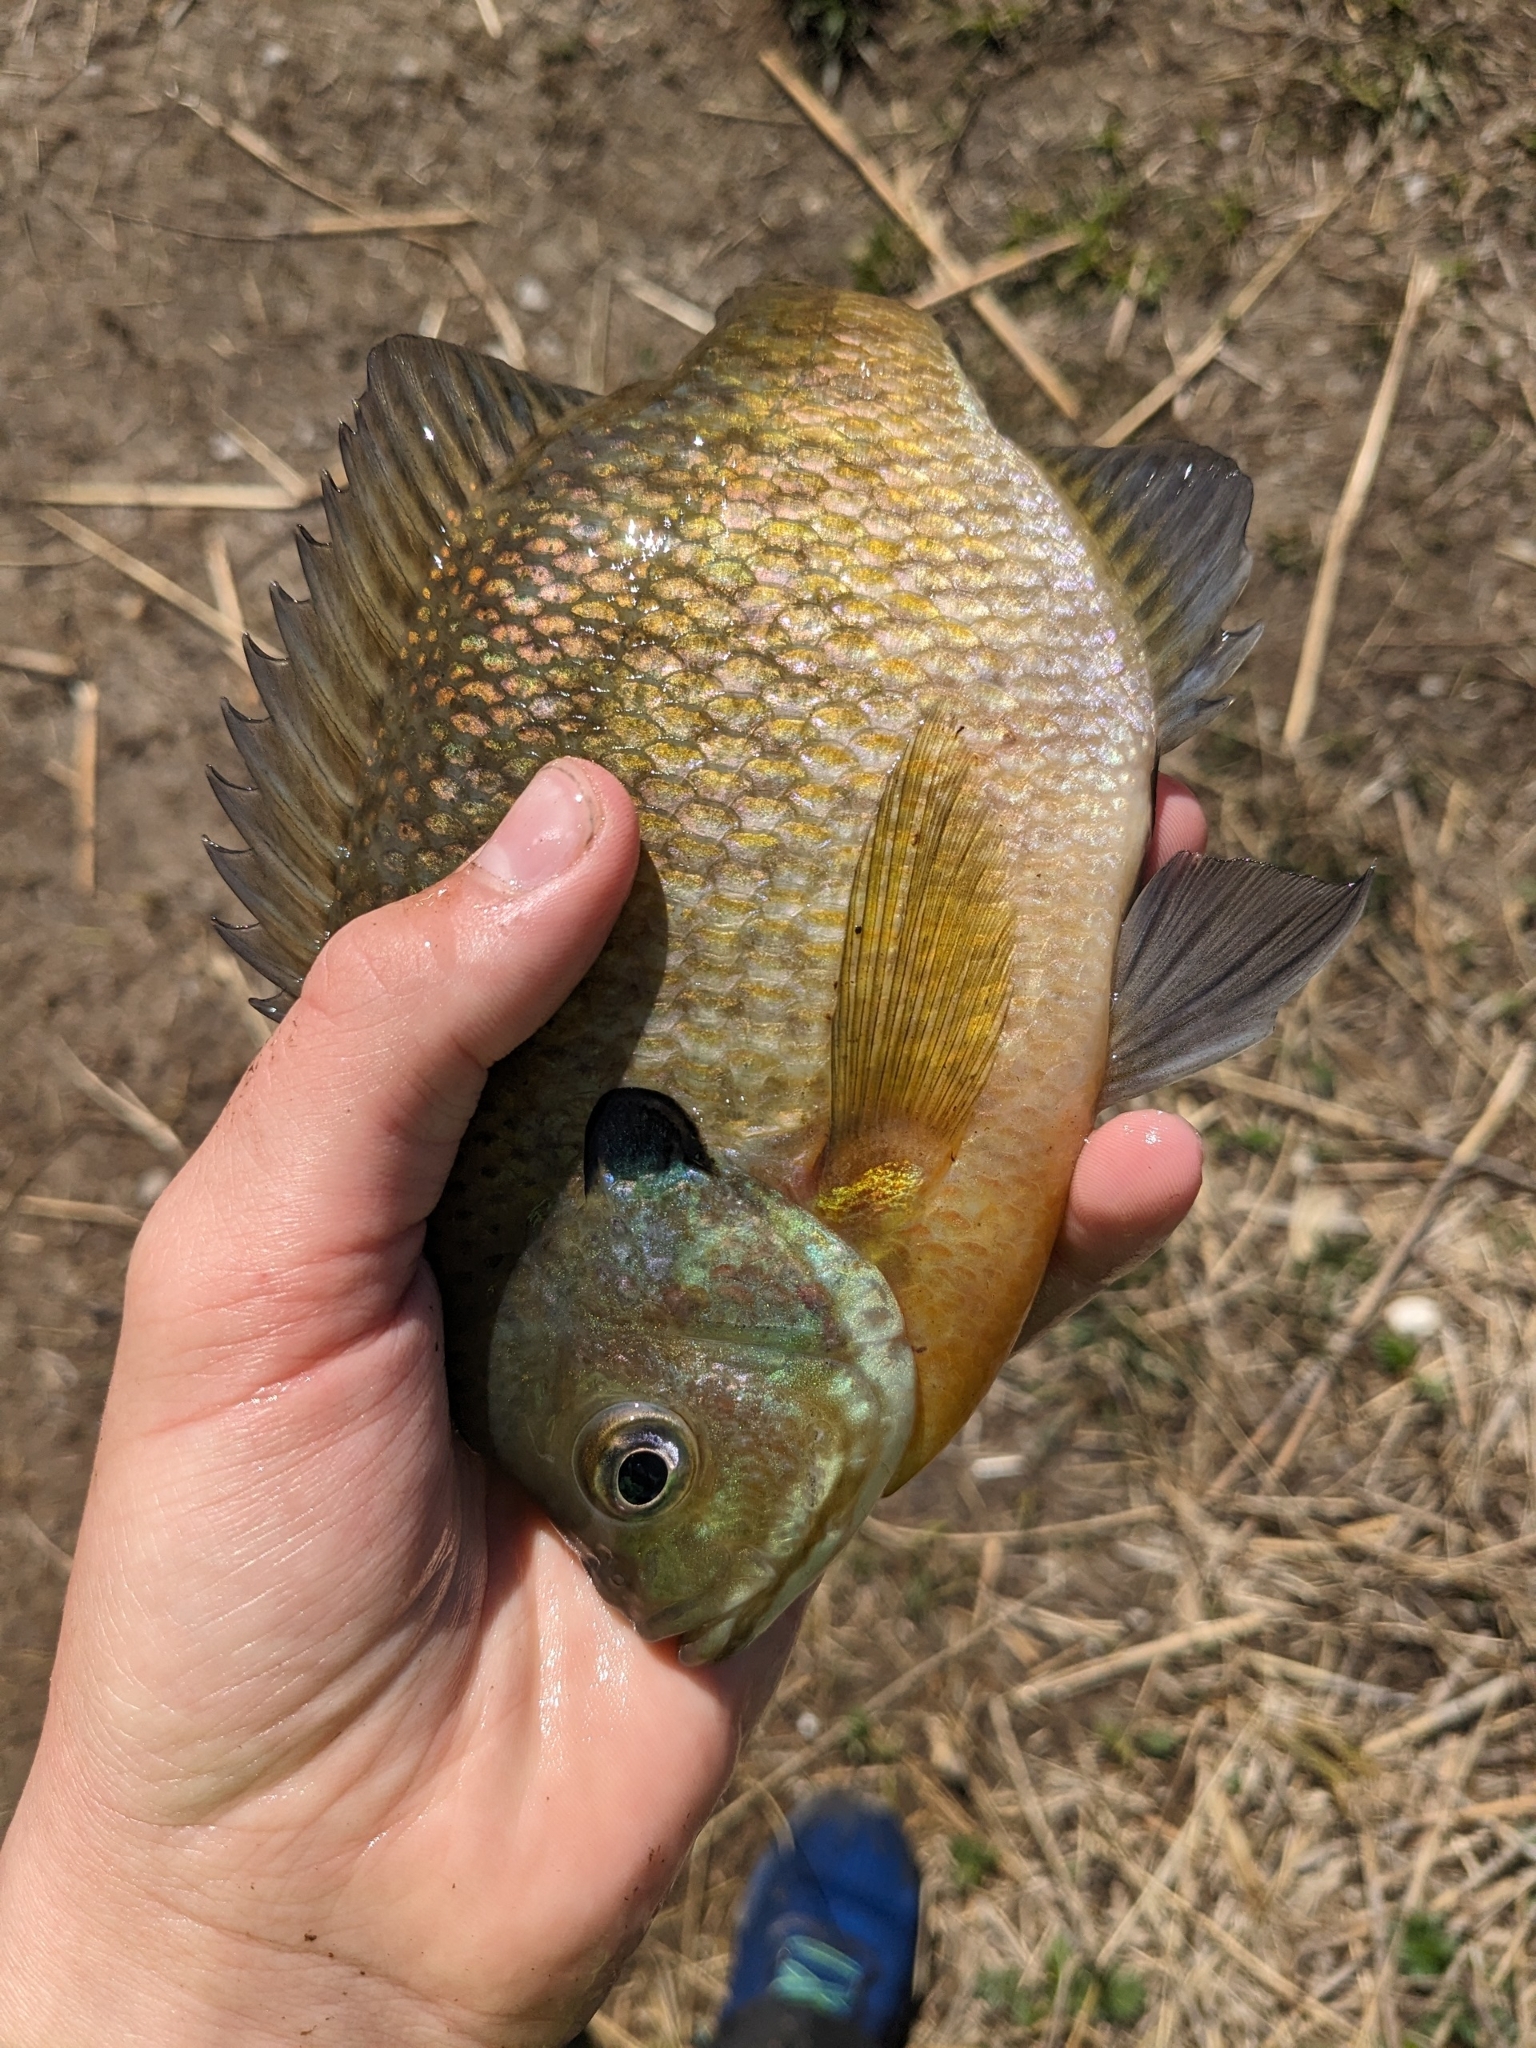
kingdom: Animalia
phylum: Chordata
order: Perciformes
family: Centrarchidae
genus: Lepomis
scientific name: Lepomis macrochirus
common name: Bluegill
